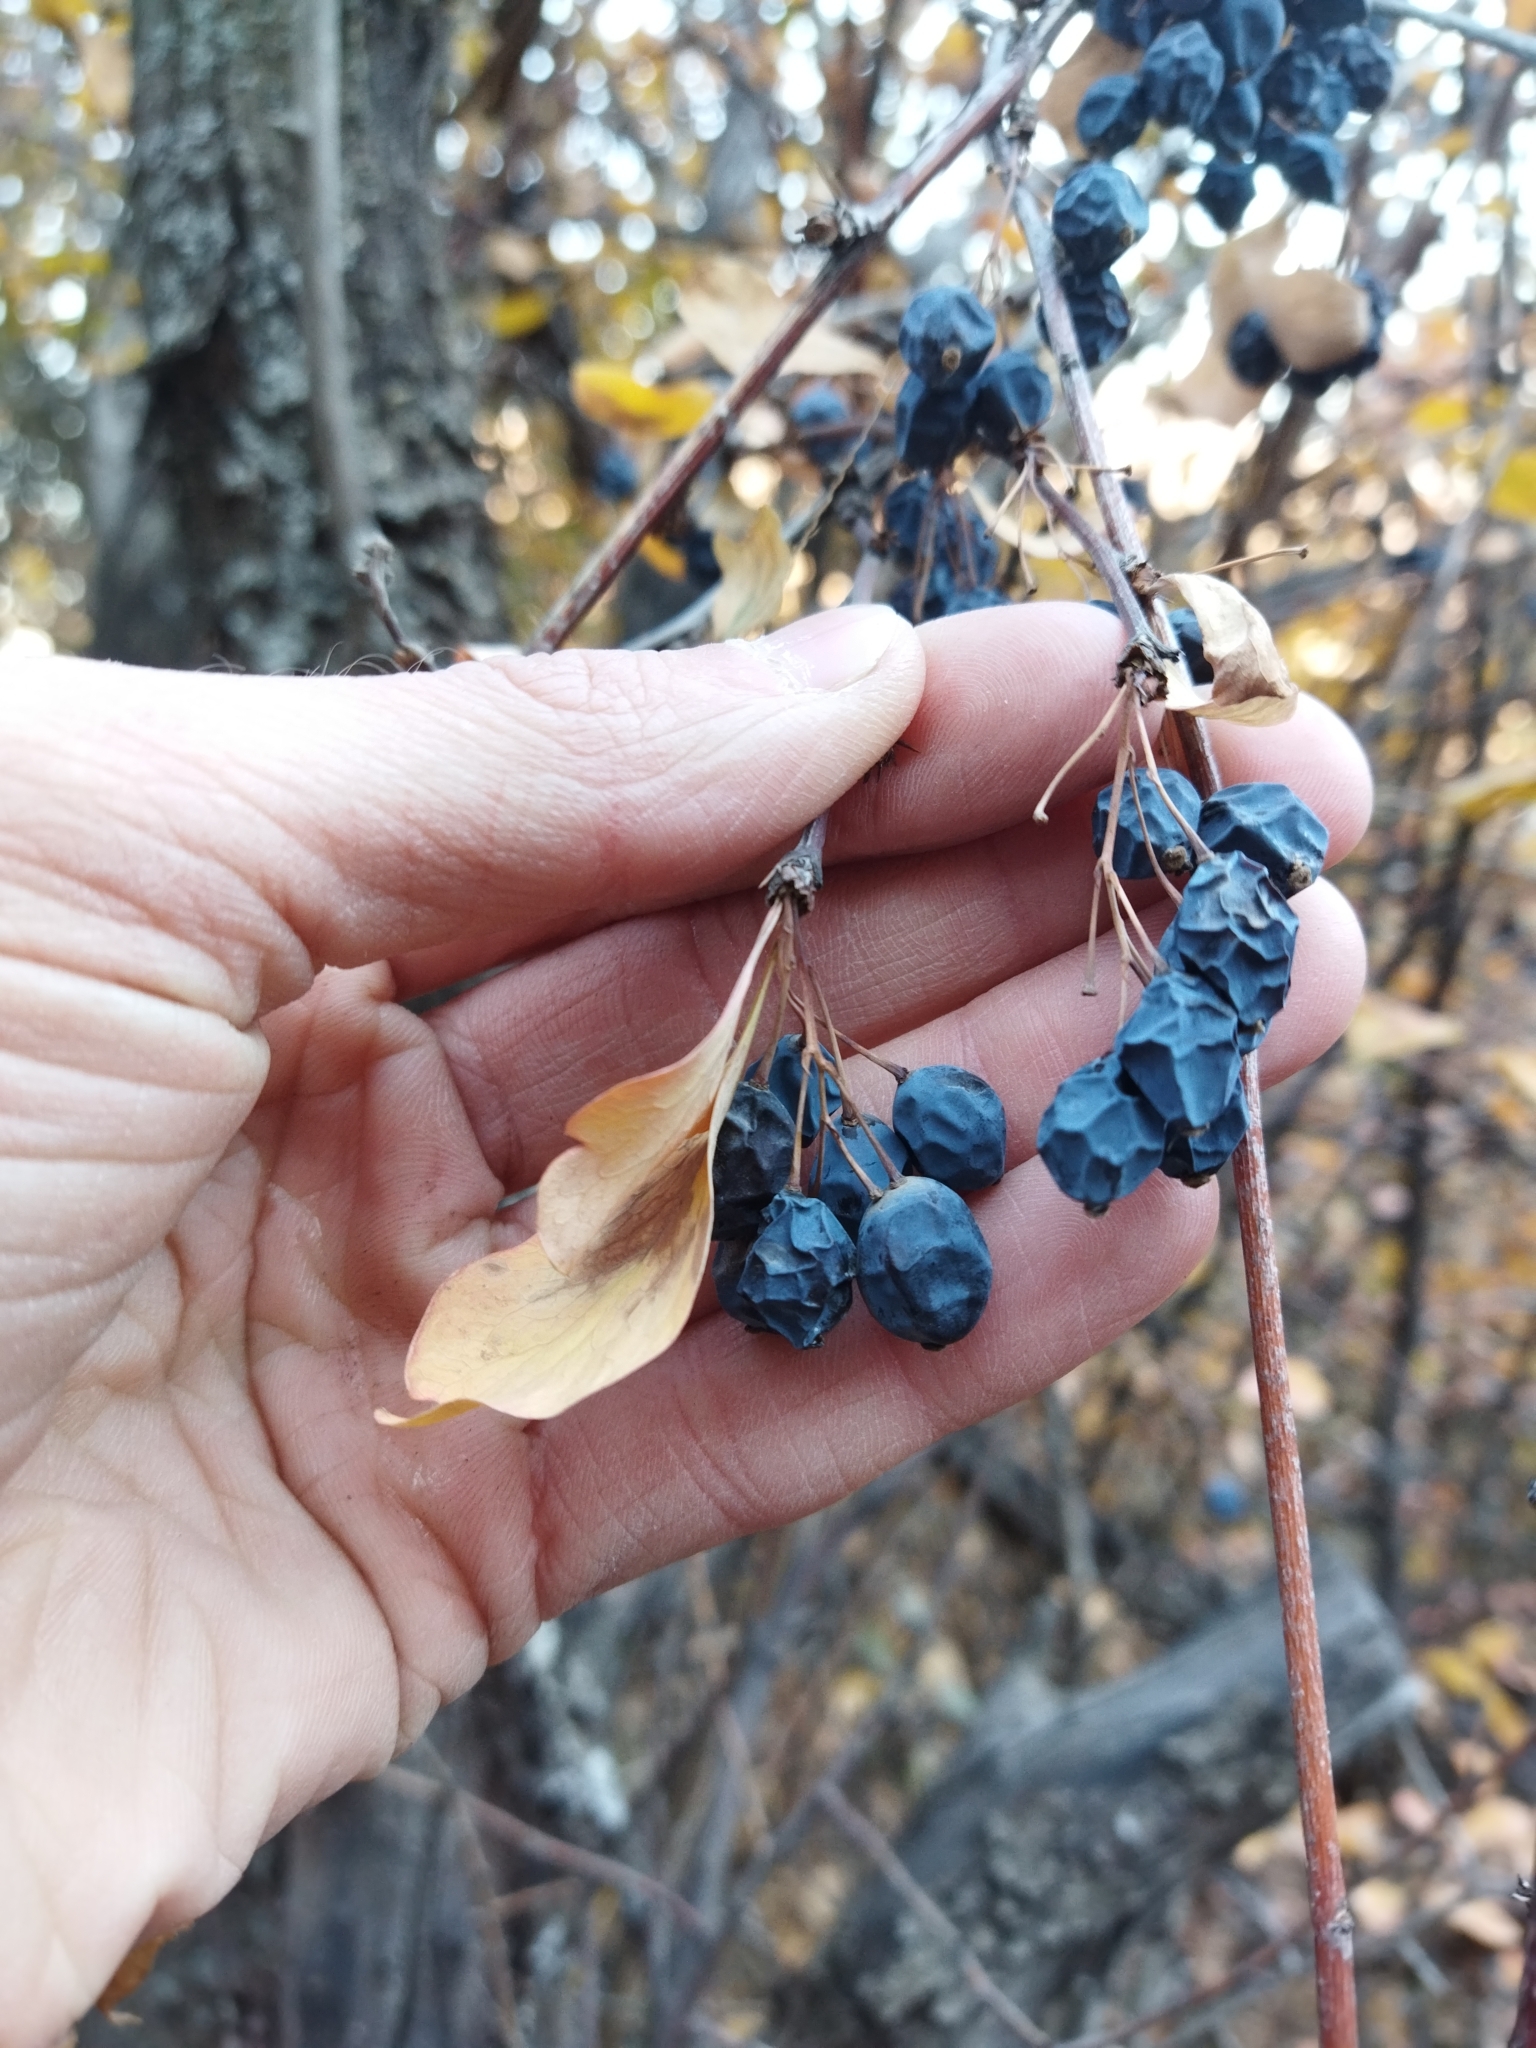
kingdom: Plantae
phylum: Tracheophyta
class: Magnoliopsida
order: Ranunculales
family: Berberidaceae
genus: Berberis
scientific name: Berberis heteropoda
